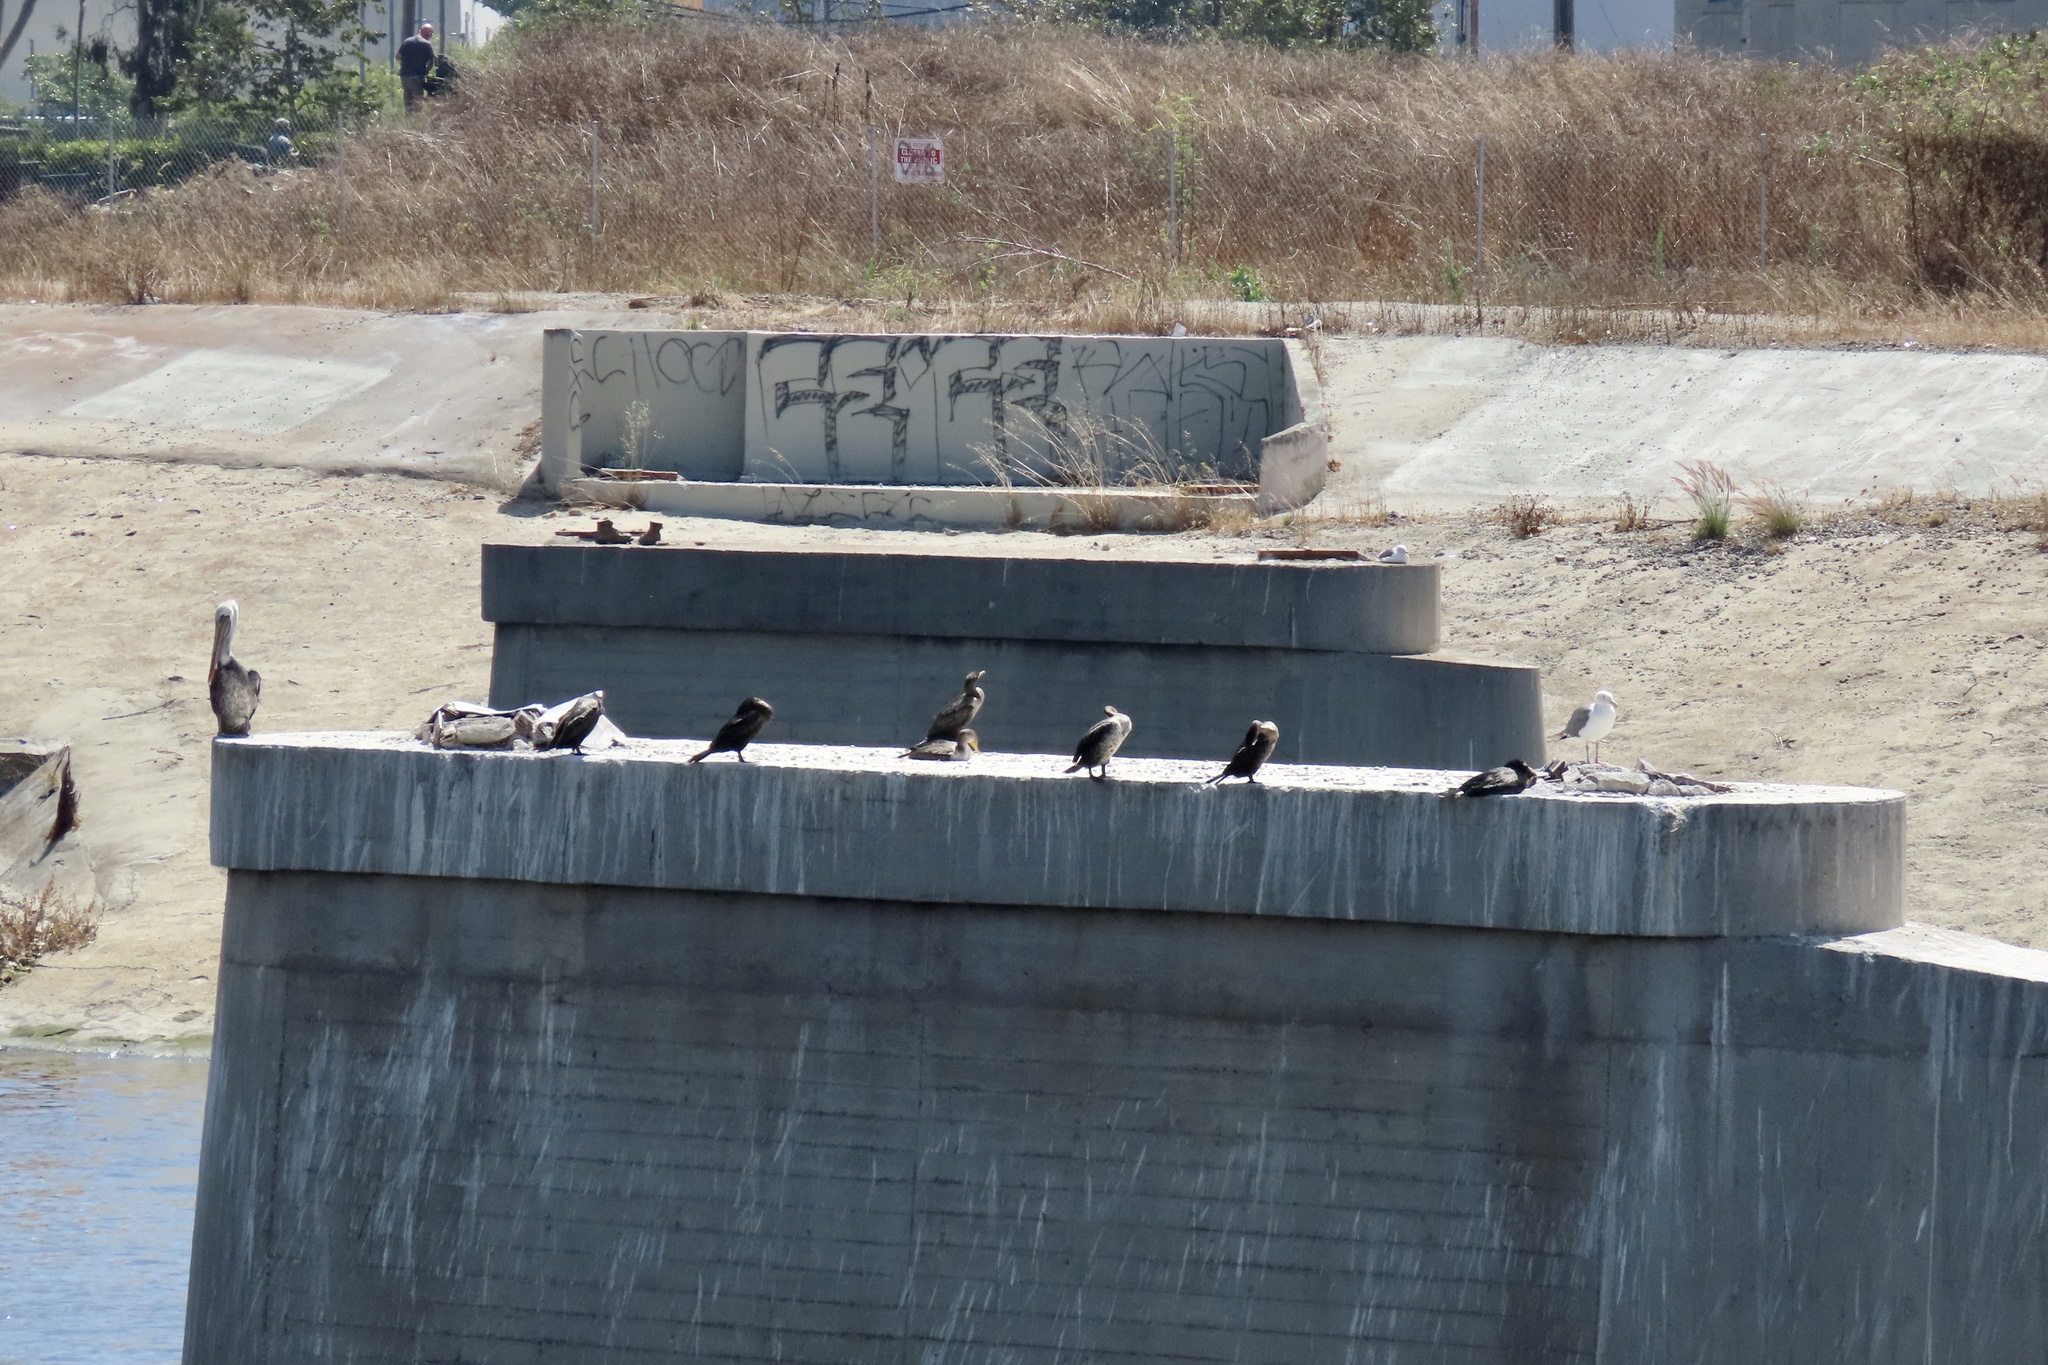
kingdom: Animalia
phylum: Chordata
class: Aves
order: Charadriiformes
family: Laridae
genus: Larus
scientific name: Larus occidentalis
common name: Western gull
